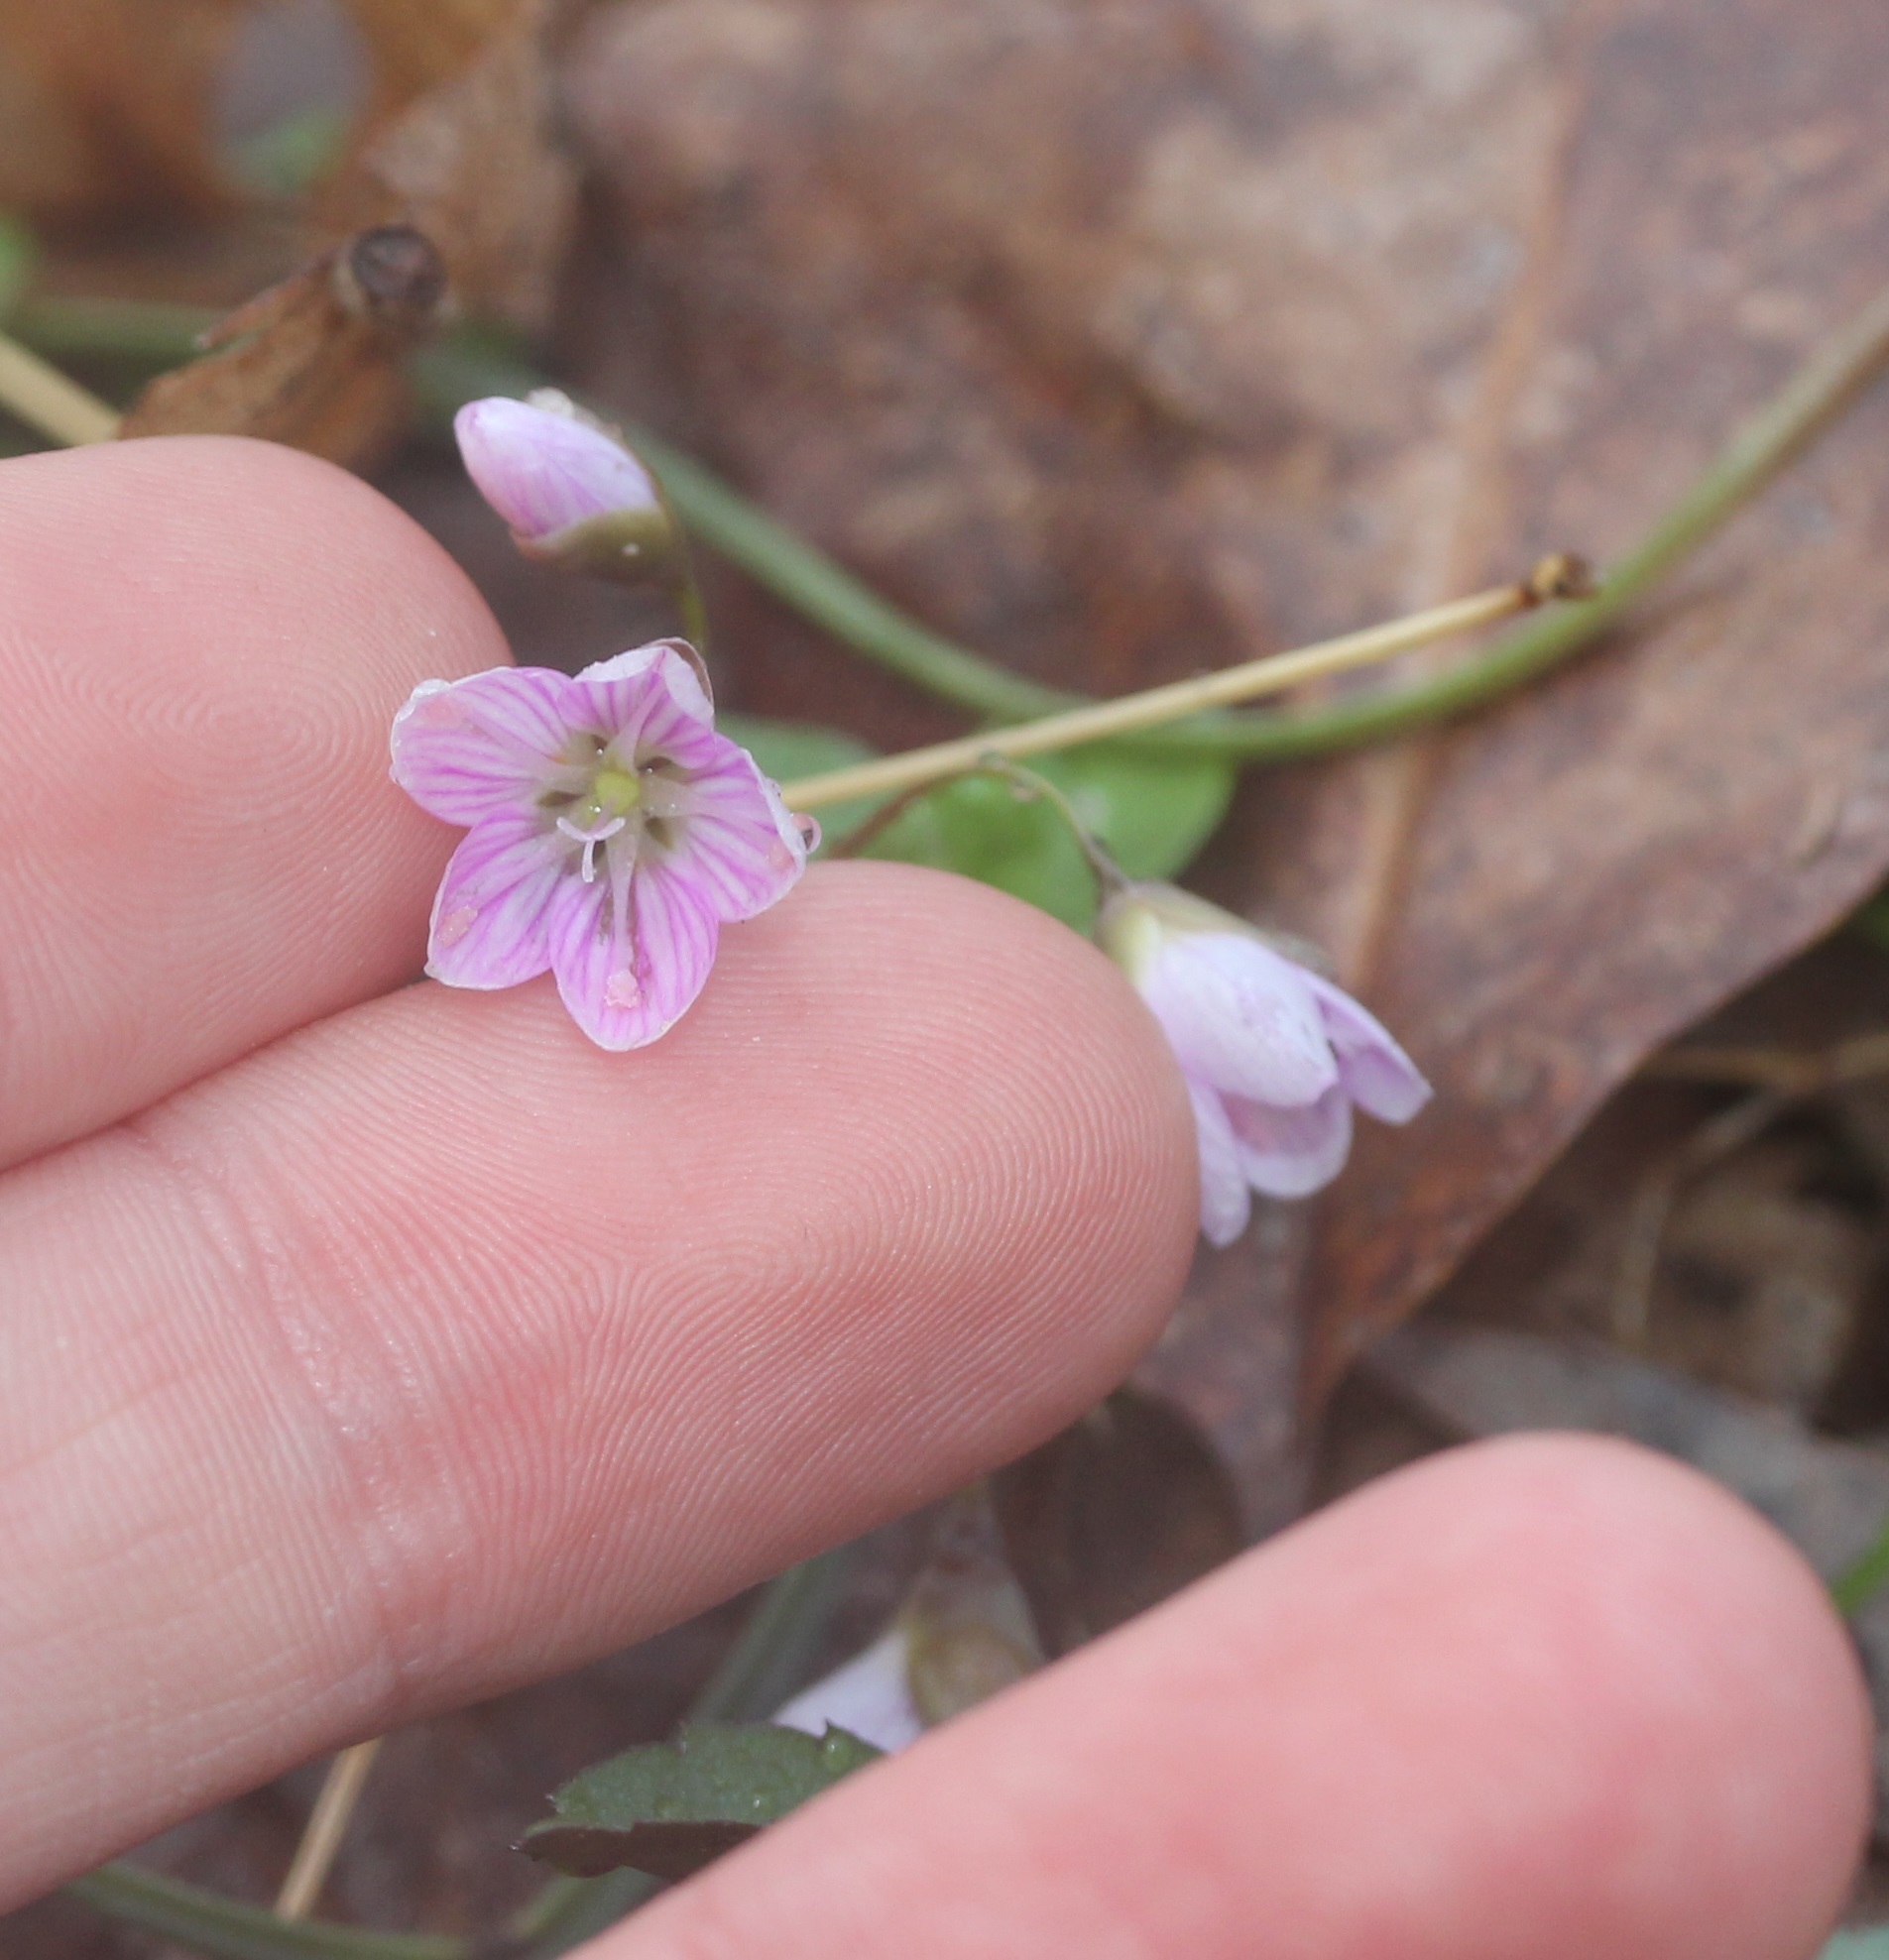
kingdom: Plantae
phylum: Tracheophyta
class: Magnoliopsida
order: Caryophyllales
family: Montiaceae
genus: Claytonia
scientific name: Claytonia virginica
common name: Virginia springbeauty
